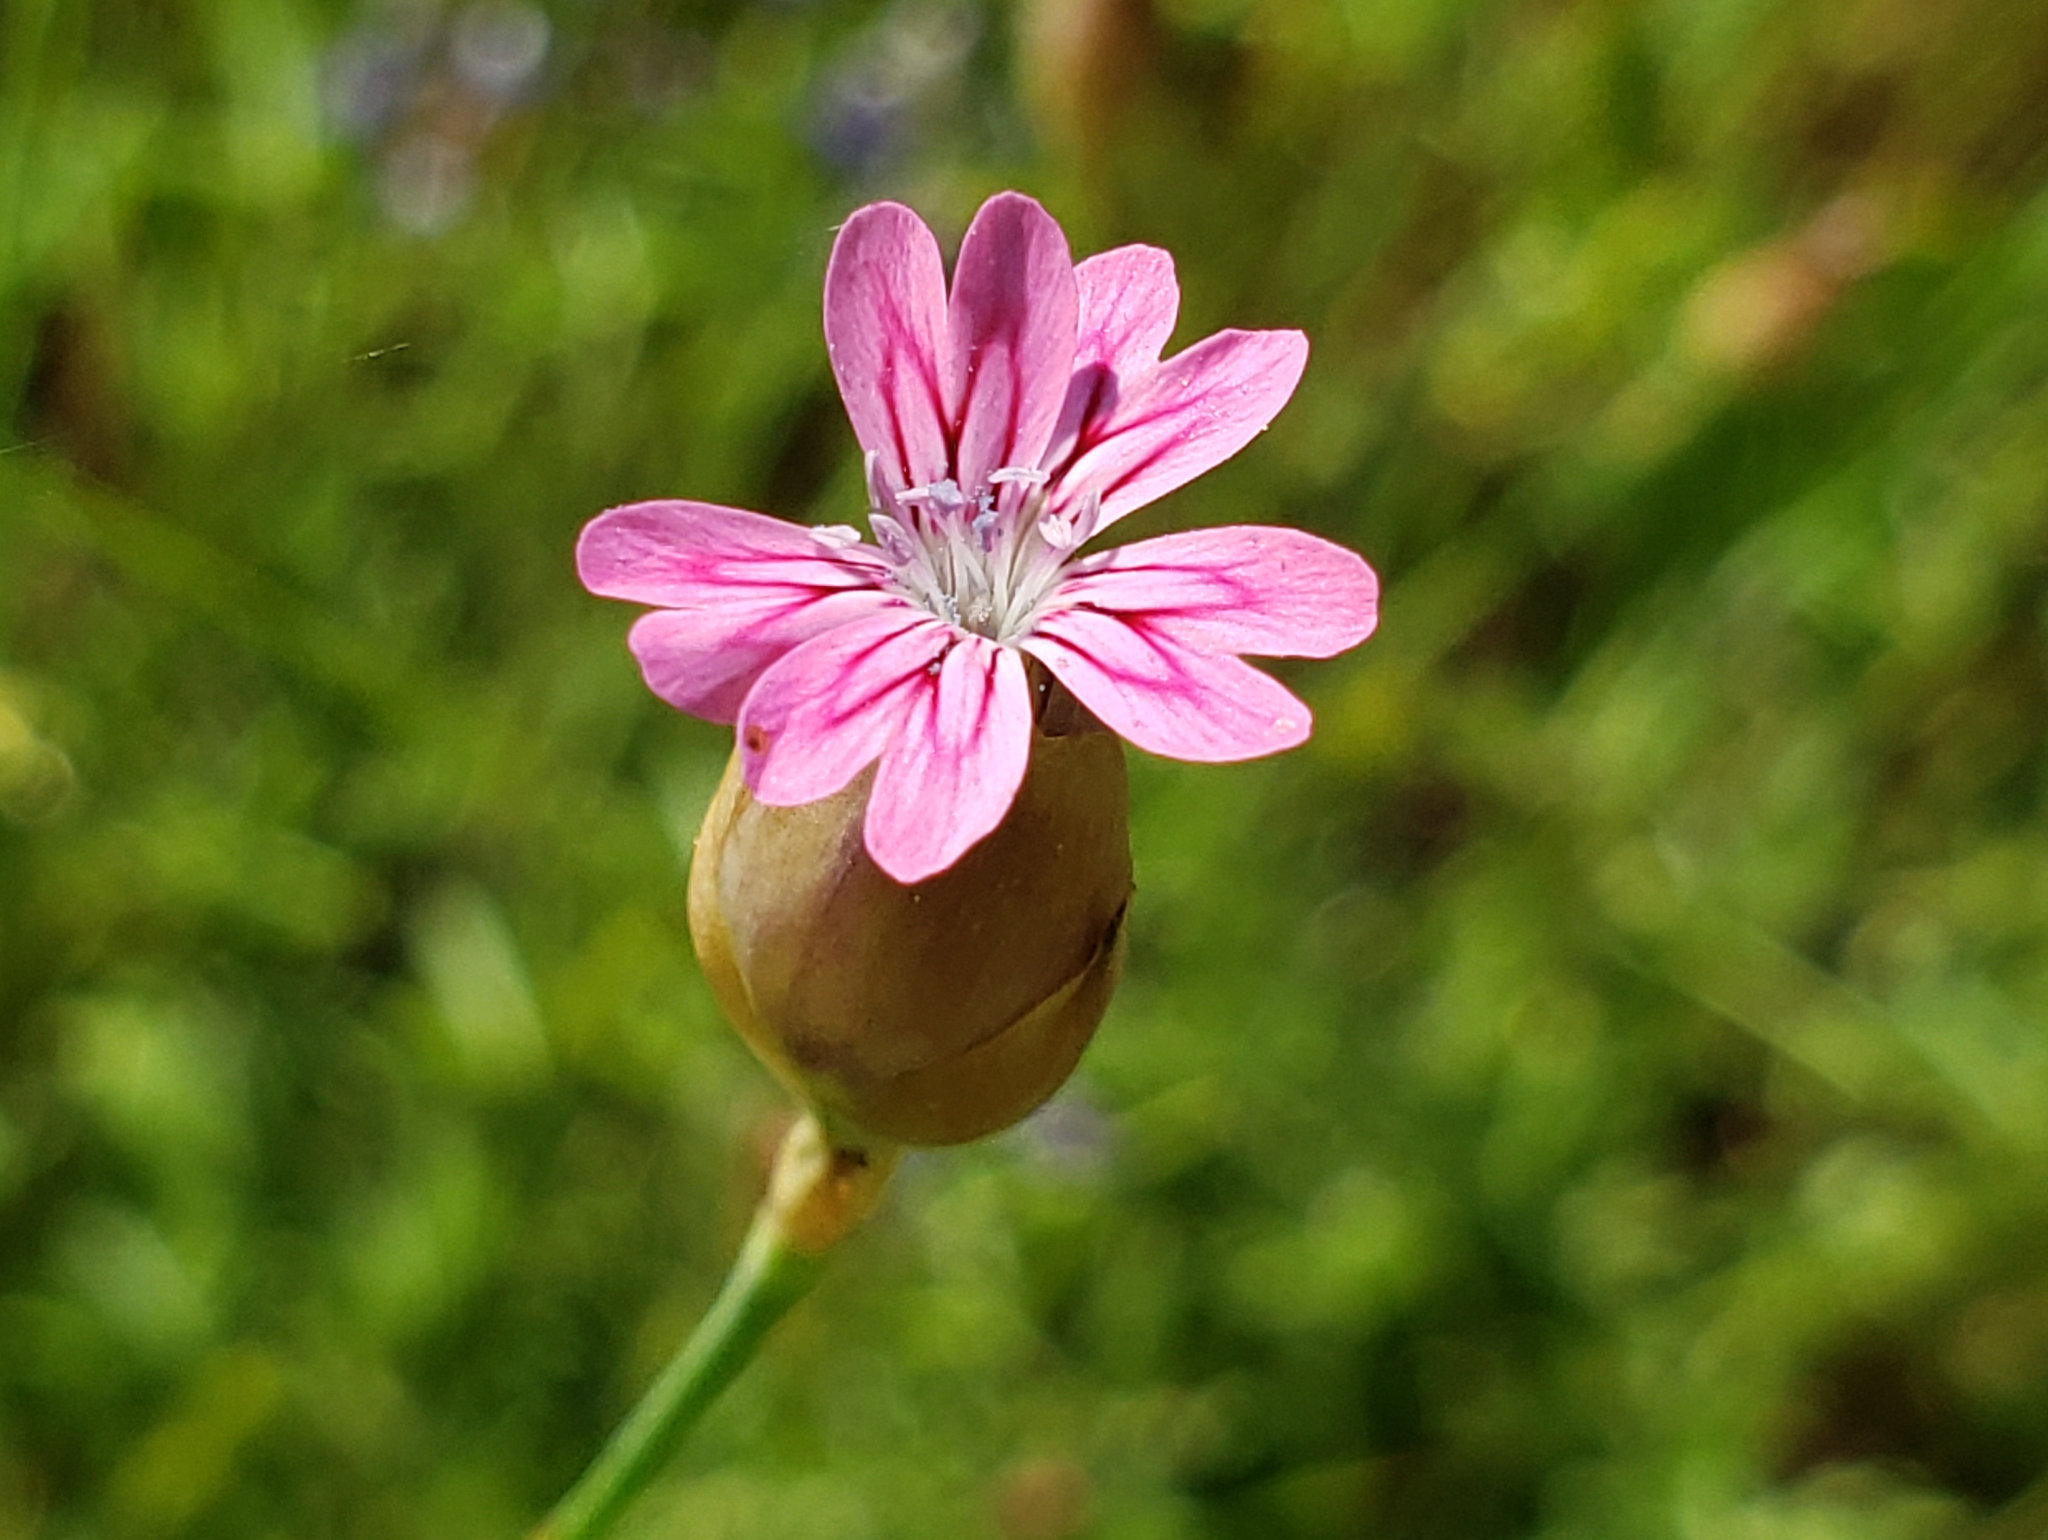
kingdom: Plantae
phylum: Tracheophyta
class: Magnoliopsida
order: Caryophyllales
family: Caryophyllaceae
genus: Petrorhagia
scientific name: Petrorhagia dubia
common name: Hairypink
